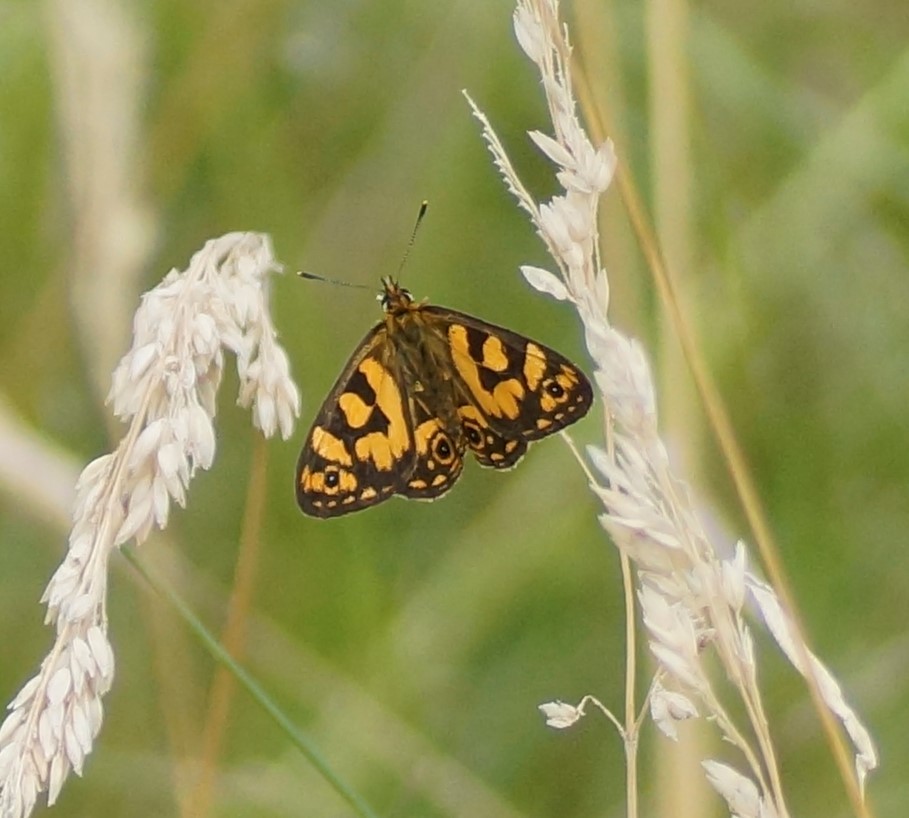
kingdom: Animalia
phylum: Arthropoda
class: Insecta
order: Lepidoptera
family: Nymphalidae
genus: Oreixenica
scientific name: Oreixenica lathoniella
